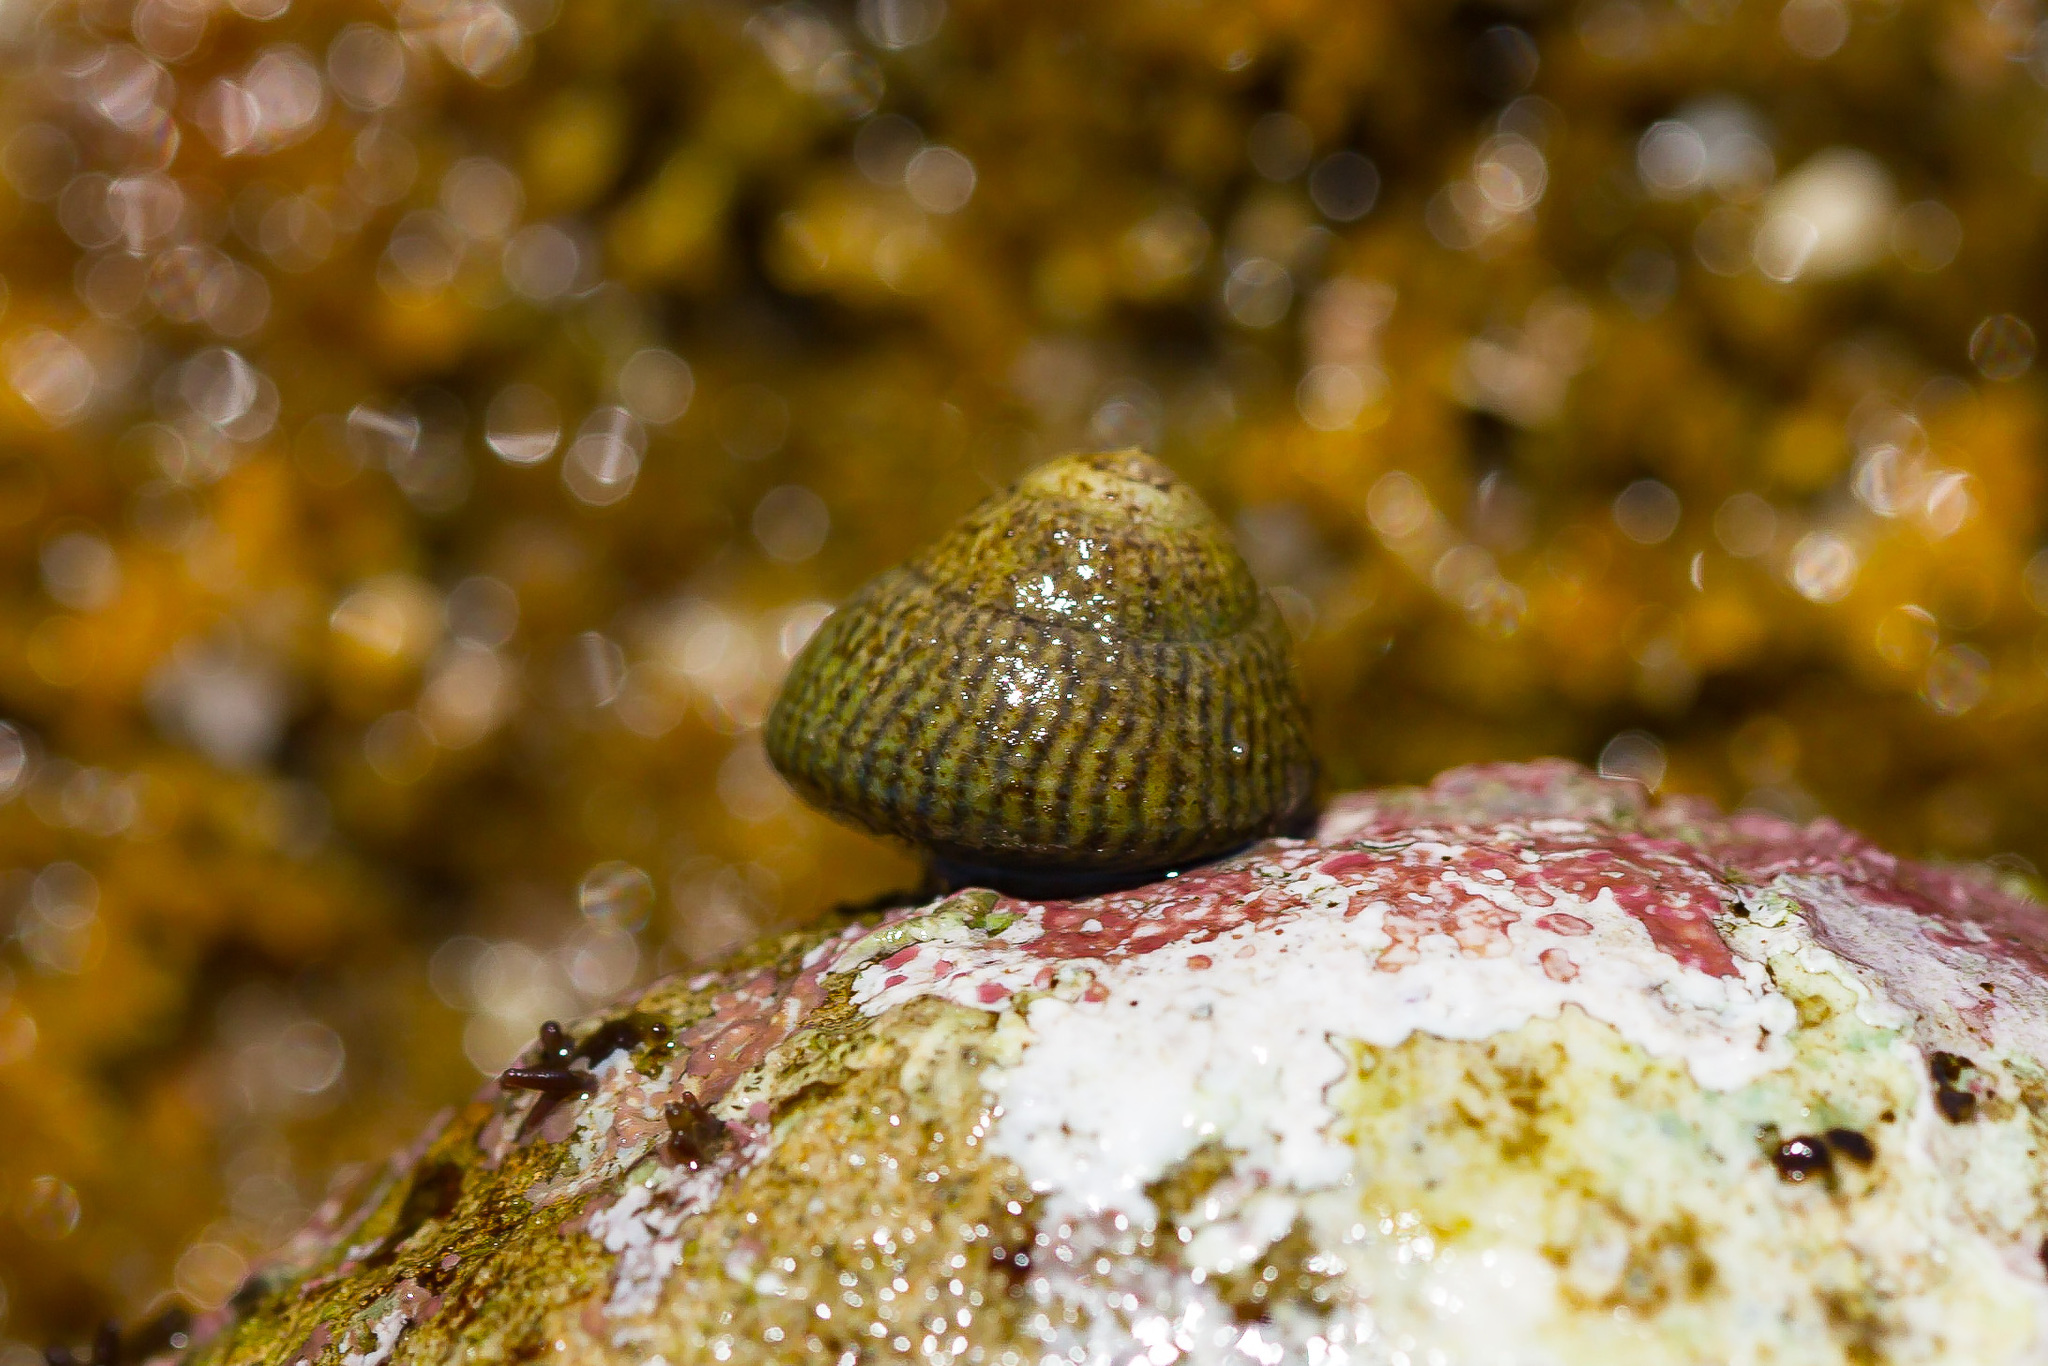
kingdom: Animalia
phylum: Mollusca
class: Gastropoda
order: Trochida
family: Trochidae
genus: Steromphala
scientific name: Steromphala cineraria
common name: Grey top shell
